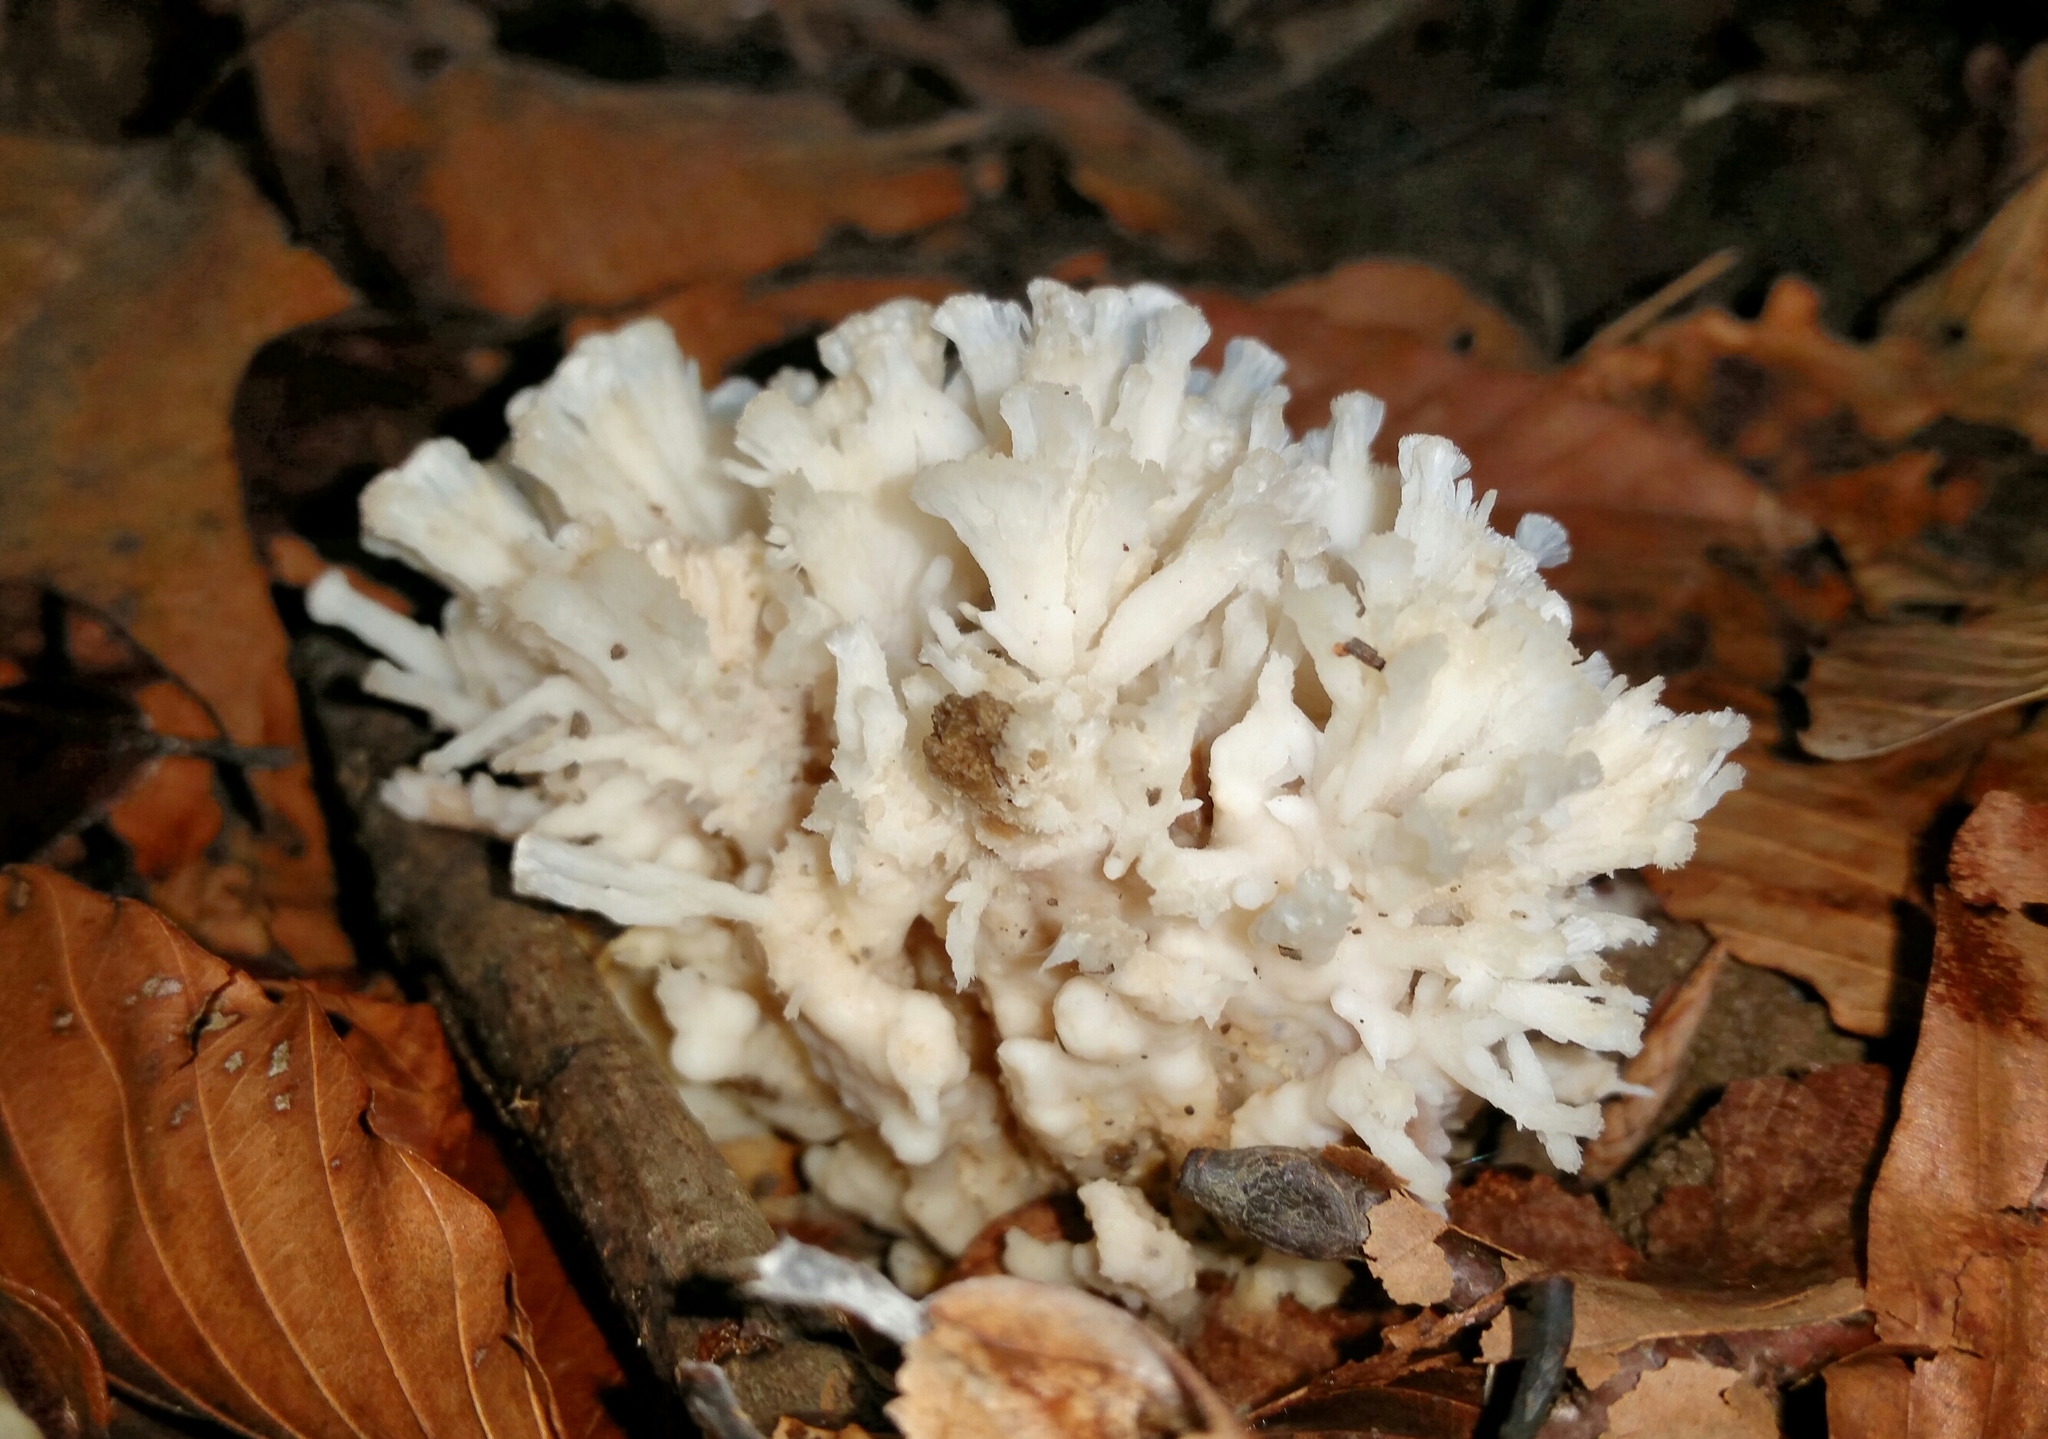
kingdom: Fungi
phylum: Basidiomycota
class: Agaricomycetes
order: Sebacinales
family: Sebacinaceae
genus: Sebacina
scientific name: Sebacina schweinitzii
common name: Jellied false coral fungus
